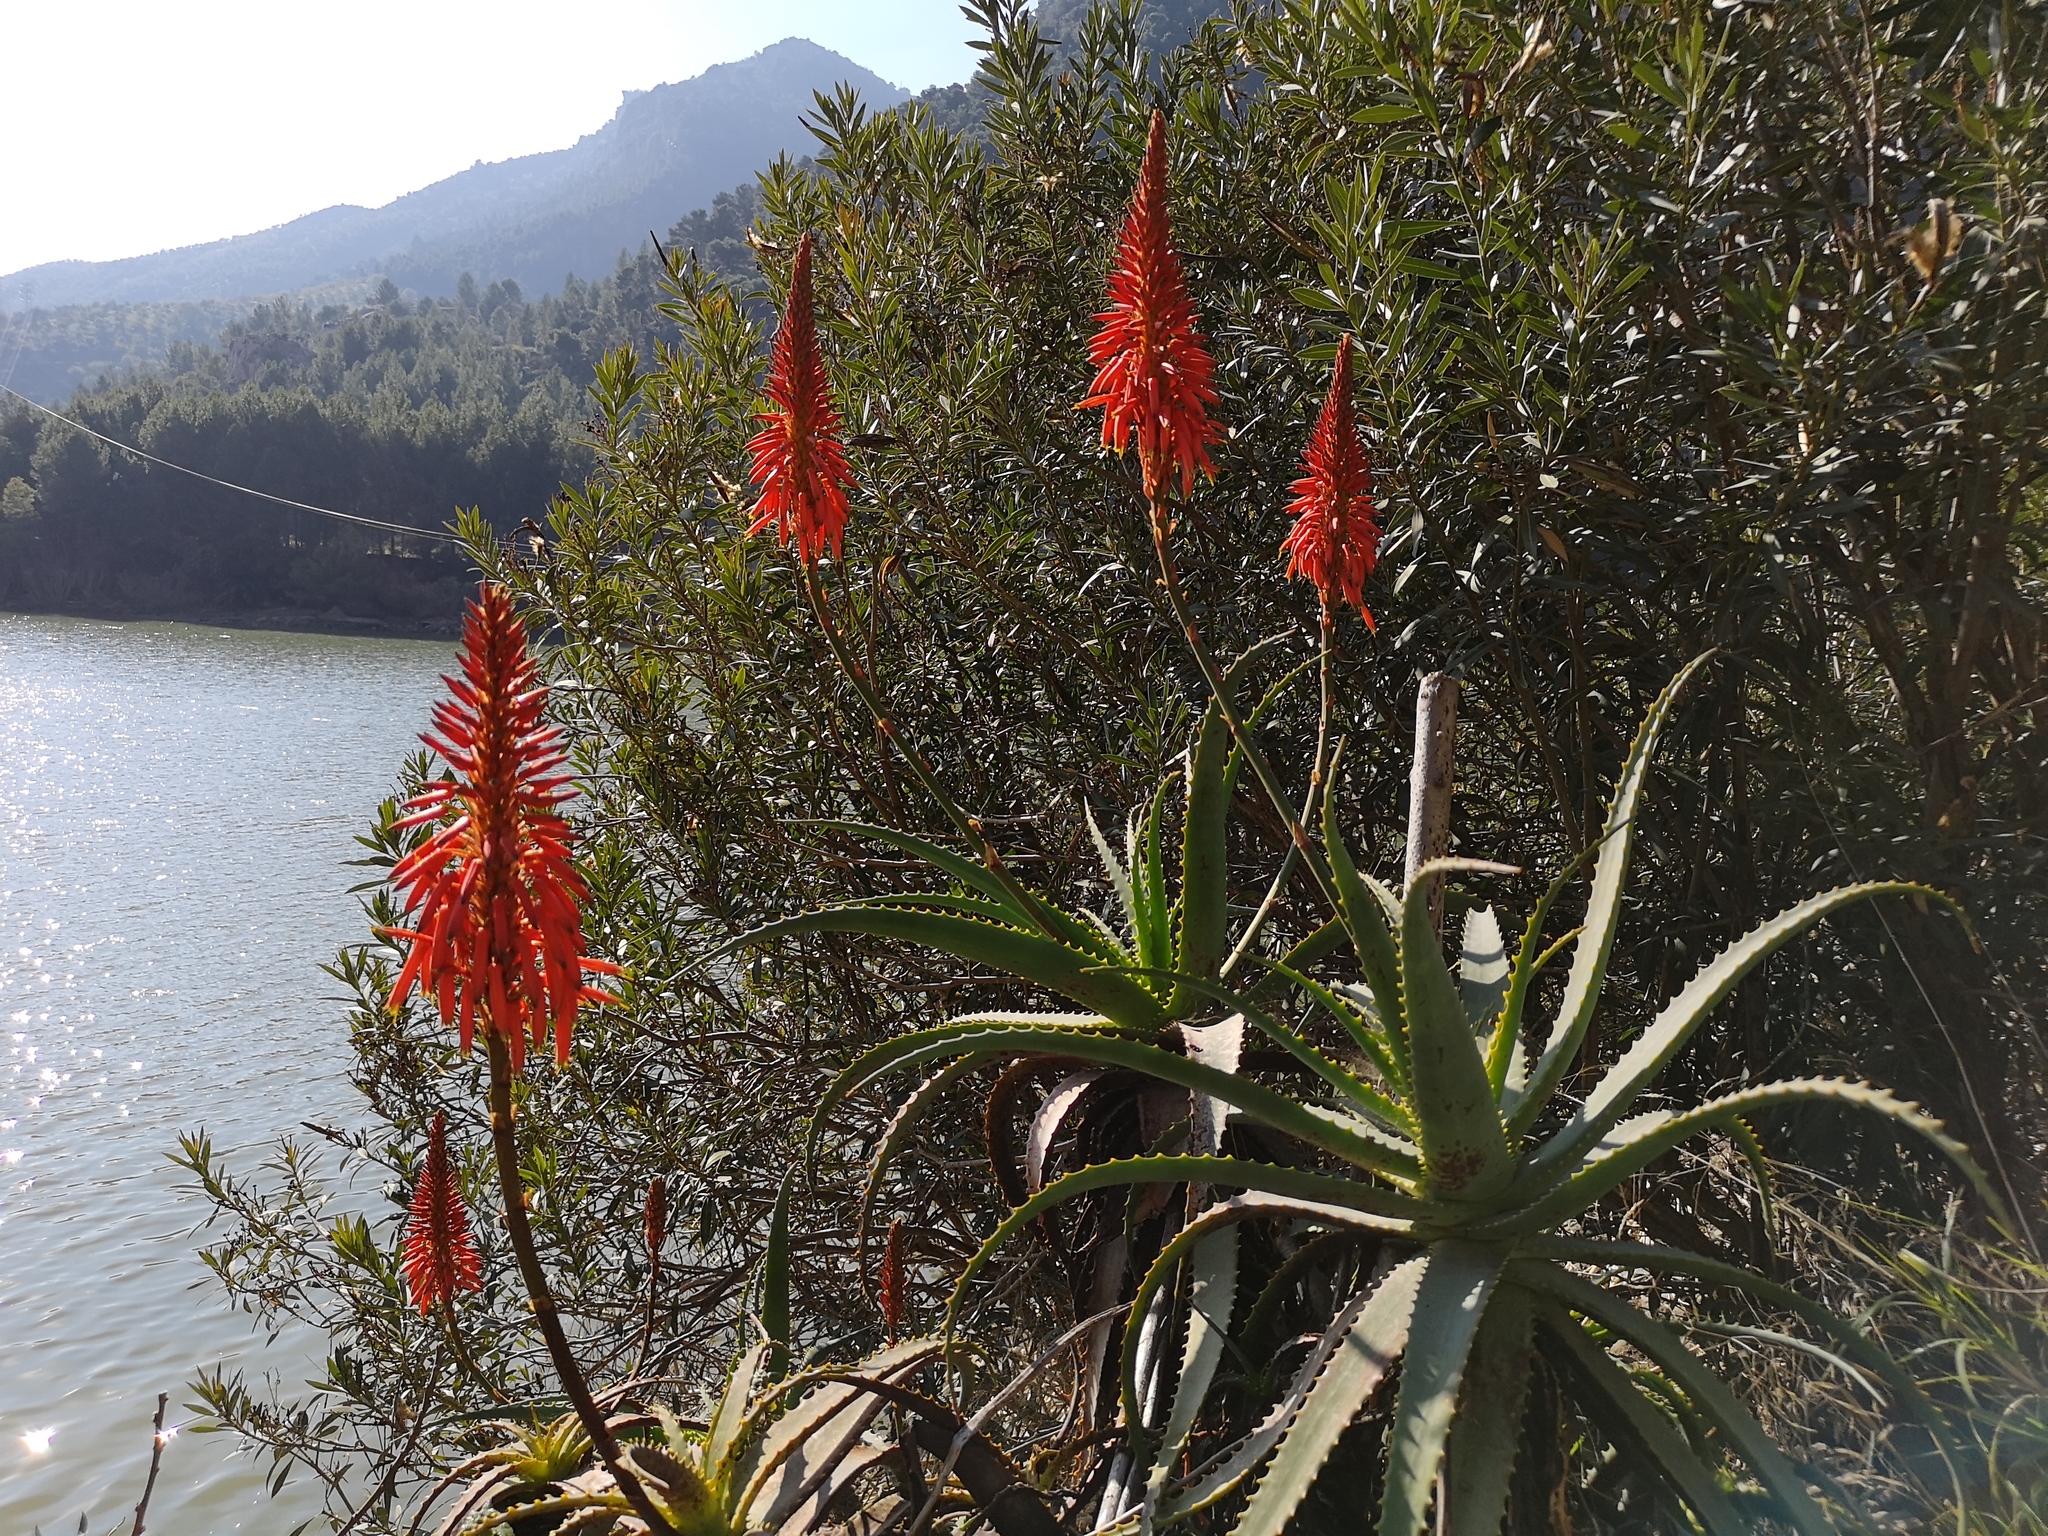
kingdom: Plantae
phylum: Tracheophyta
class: Liliopsida
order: Asparagales
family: Asphodelaceae
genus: Aloe
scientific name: Aloe arborescens
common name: Candelabra aloe
